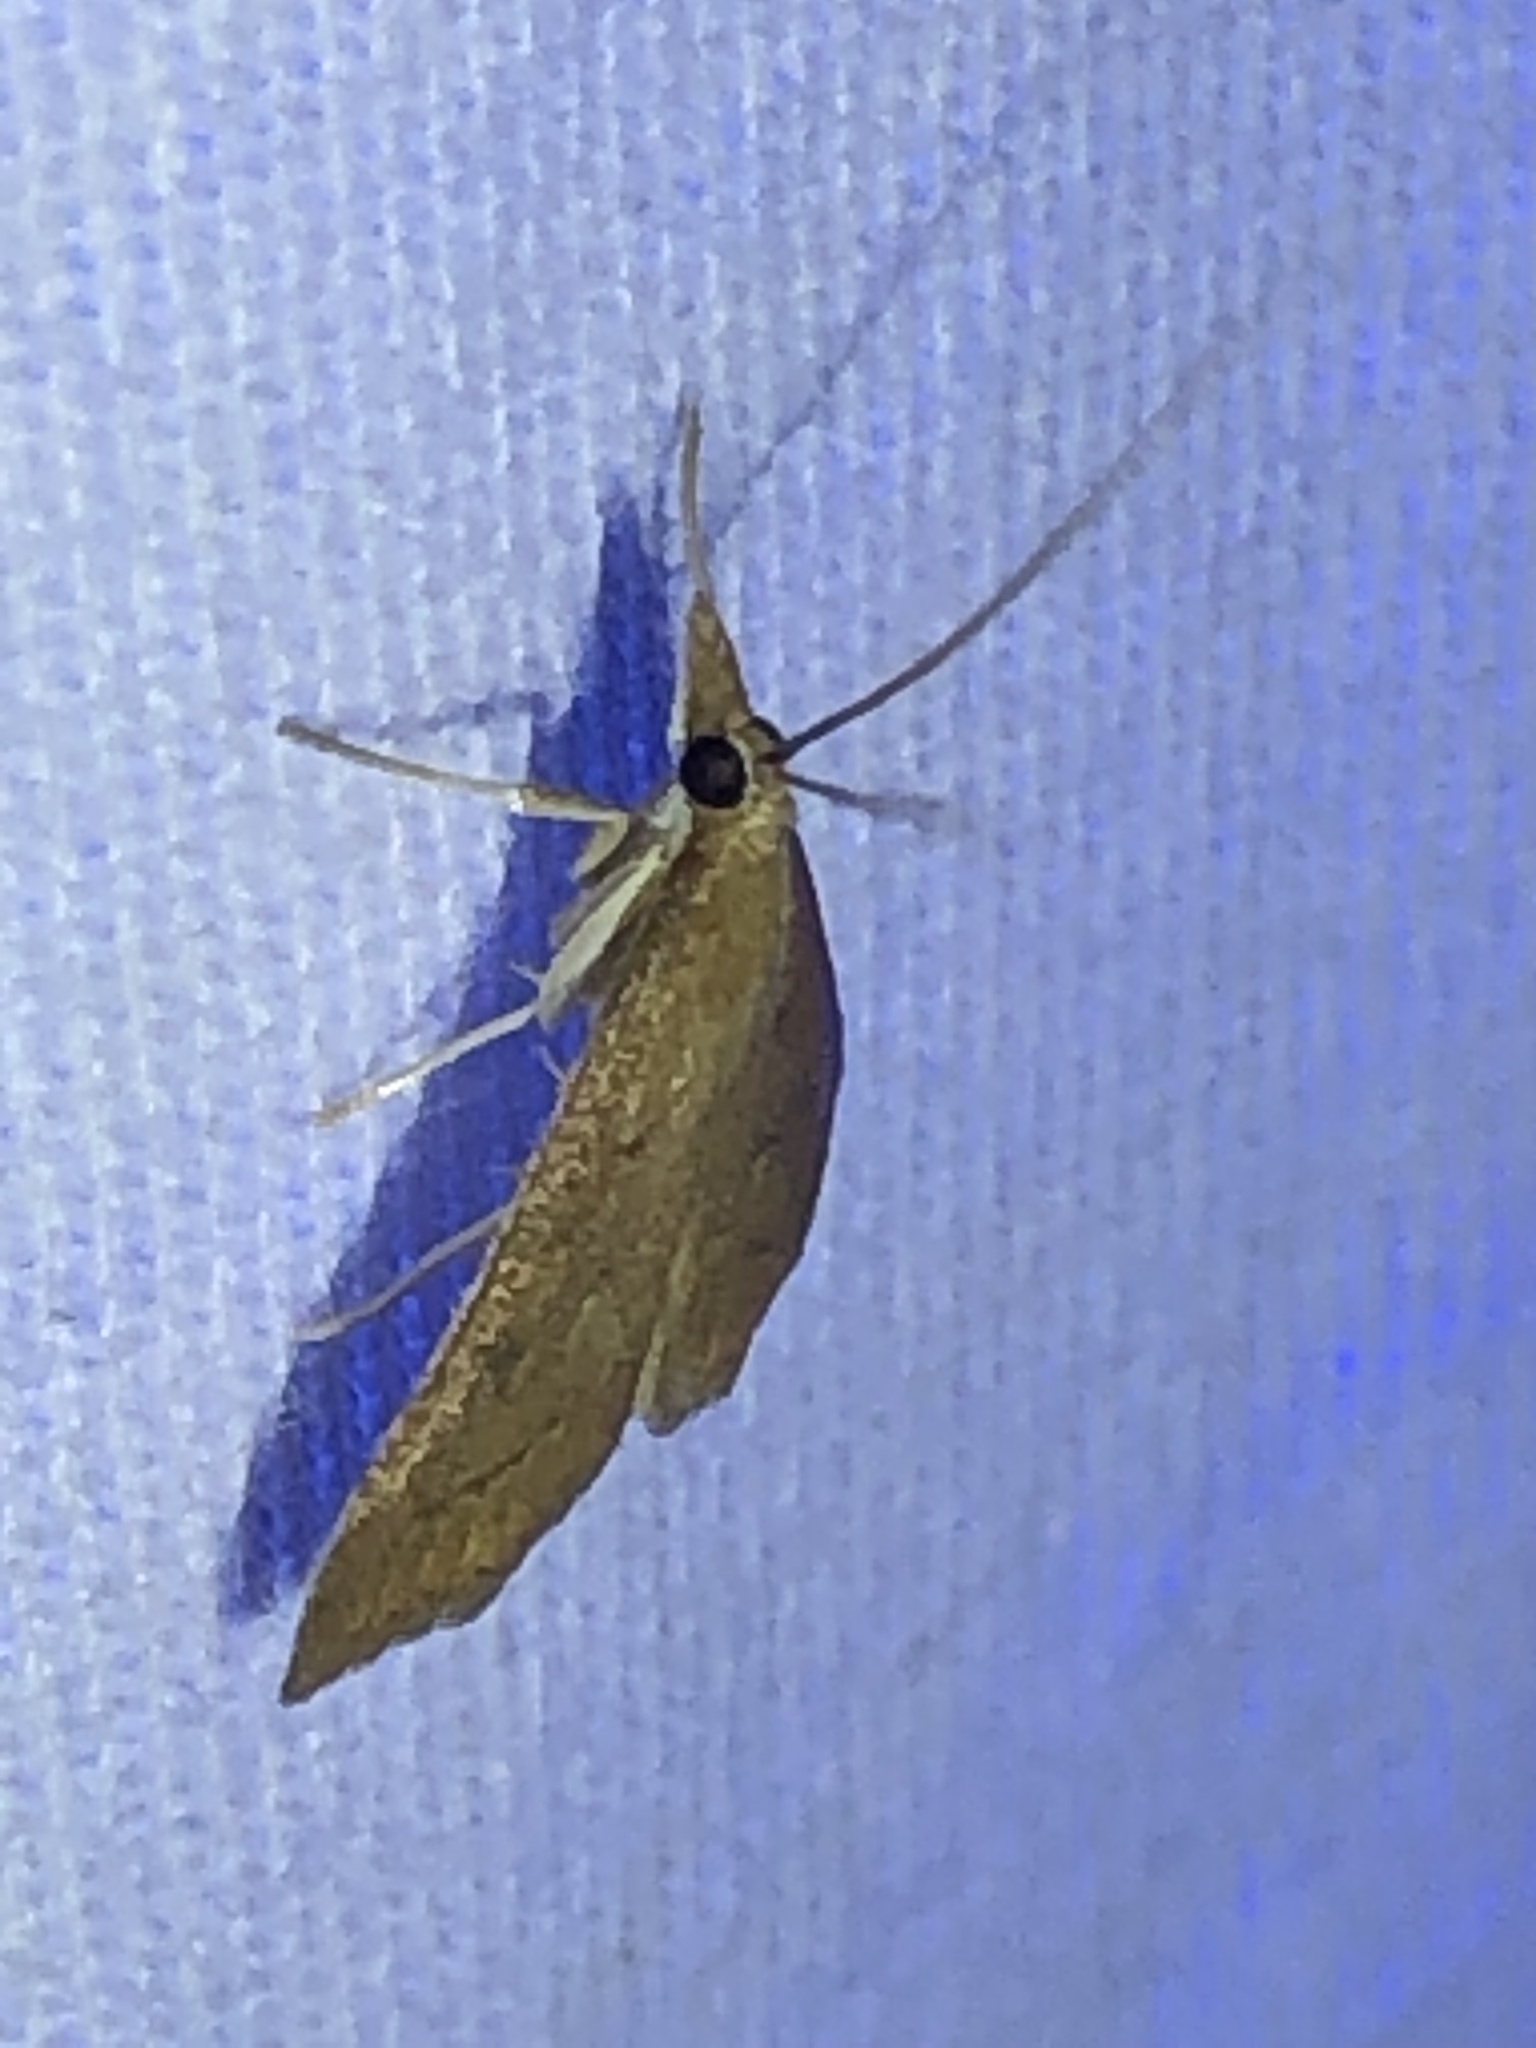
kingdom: Animalia
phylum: Arthropoda
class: Insecta
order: Lepidoptera
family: Crambidae
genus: Udea
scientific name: Udea rubigalis
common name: Celery leaftier moth
